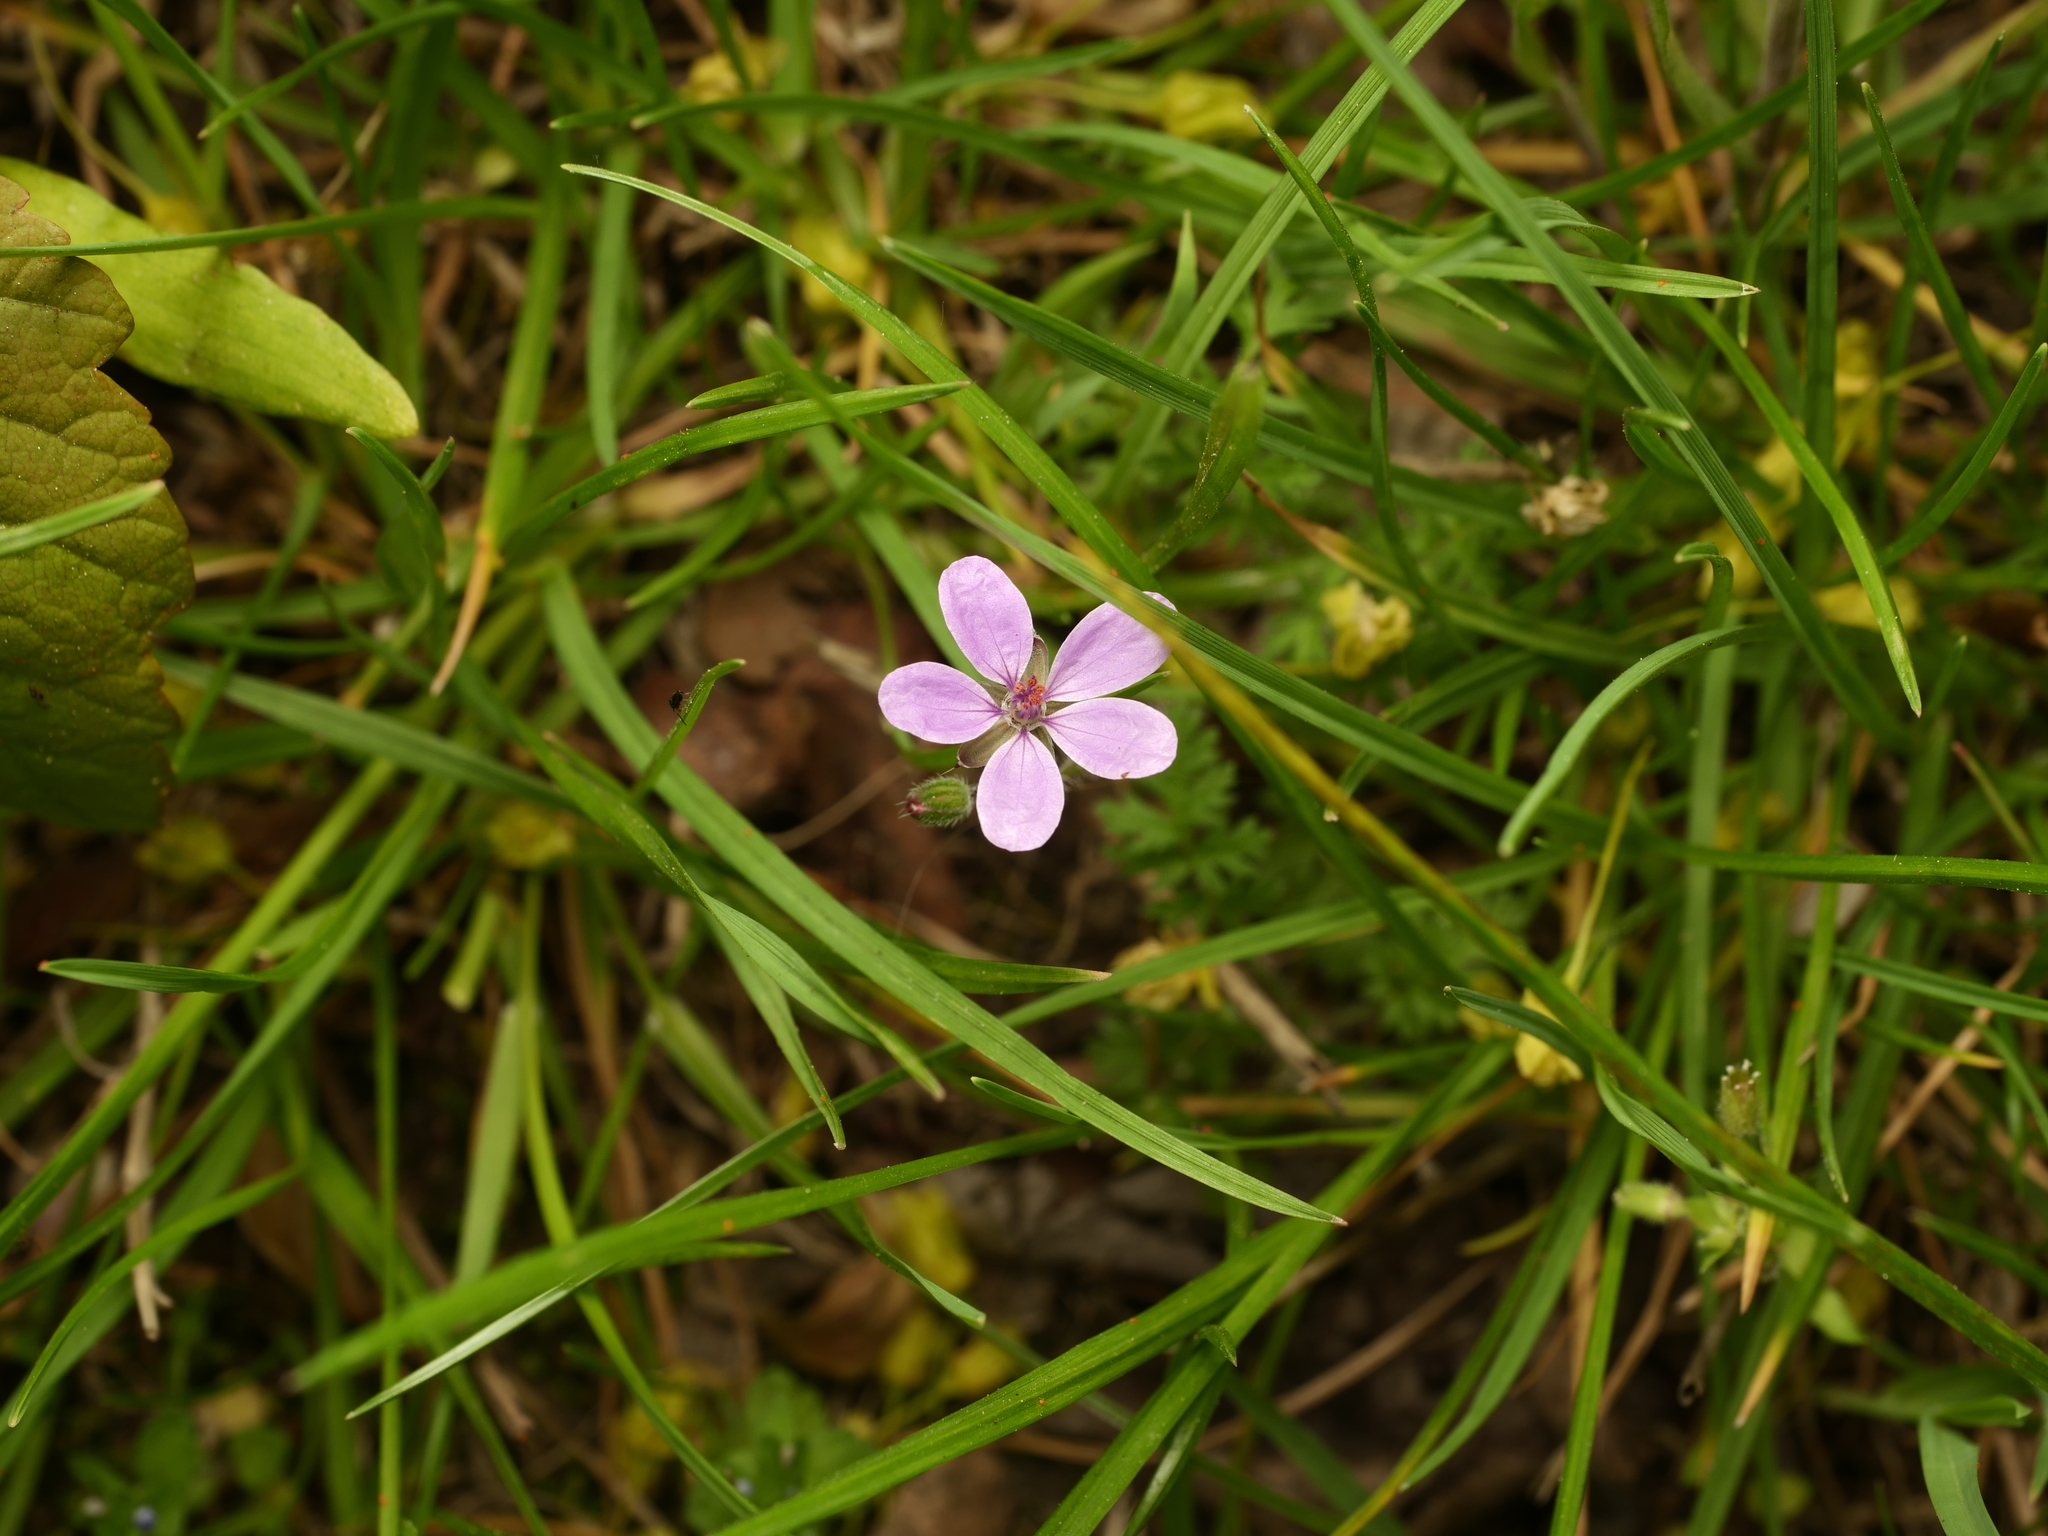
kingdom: Plantae
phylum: Tracheophyta
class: Magnoliopsida
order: Geraniales
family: Geraniaceae
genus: Erodium
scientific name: Erodium cicutarium
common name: Common stork's-bill
